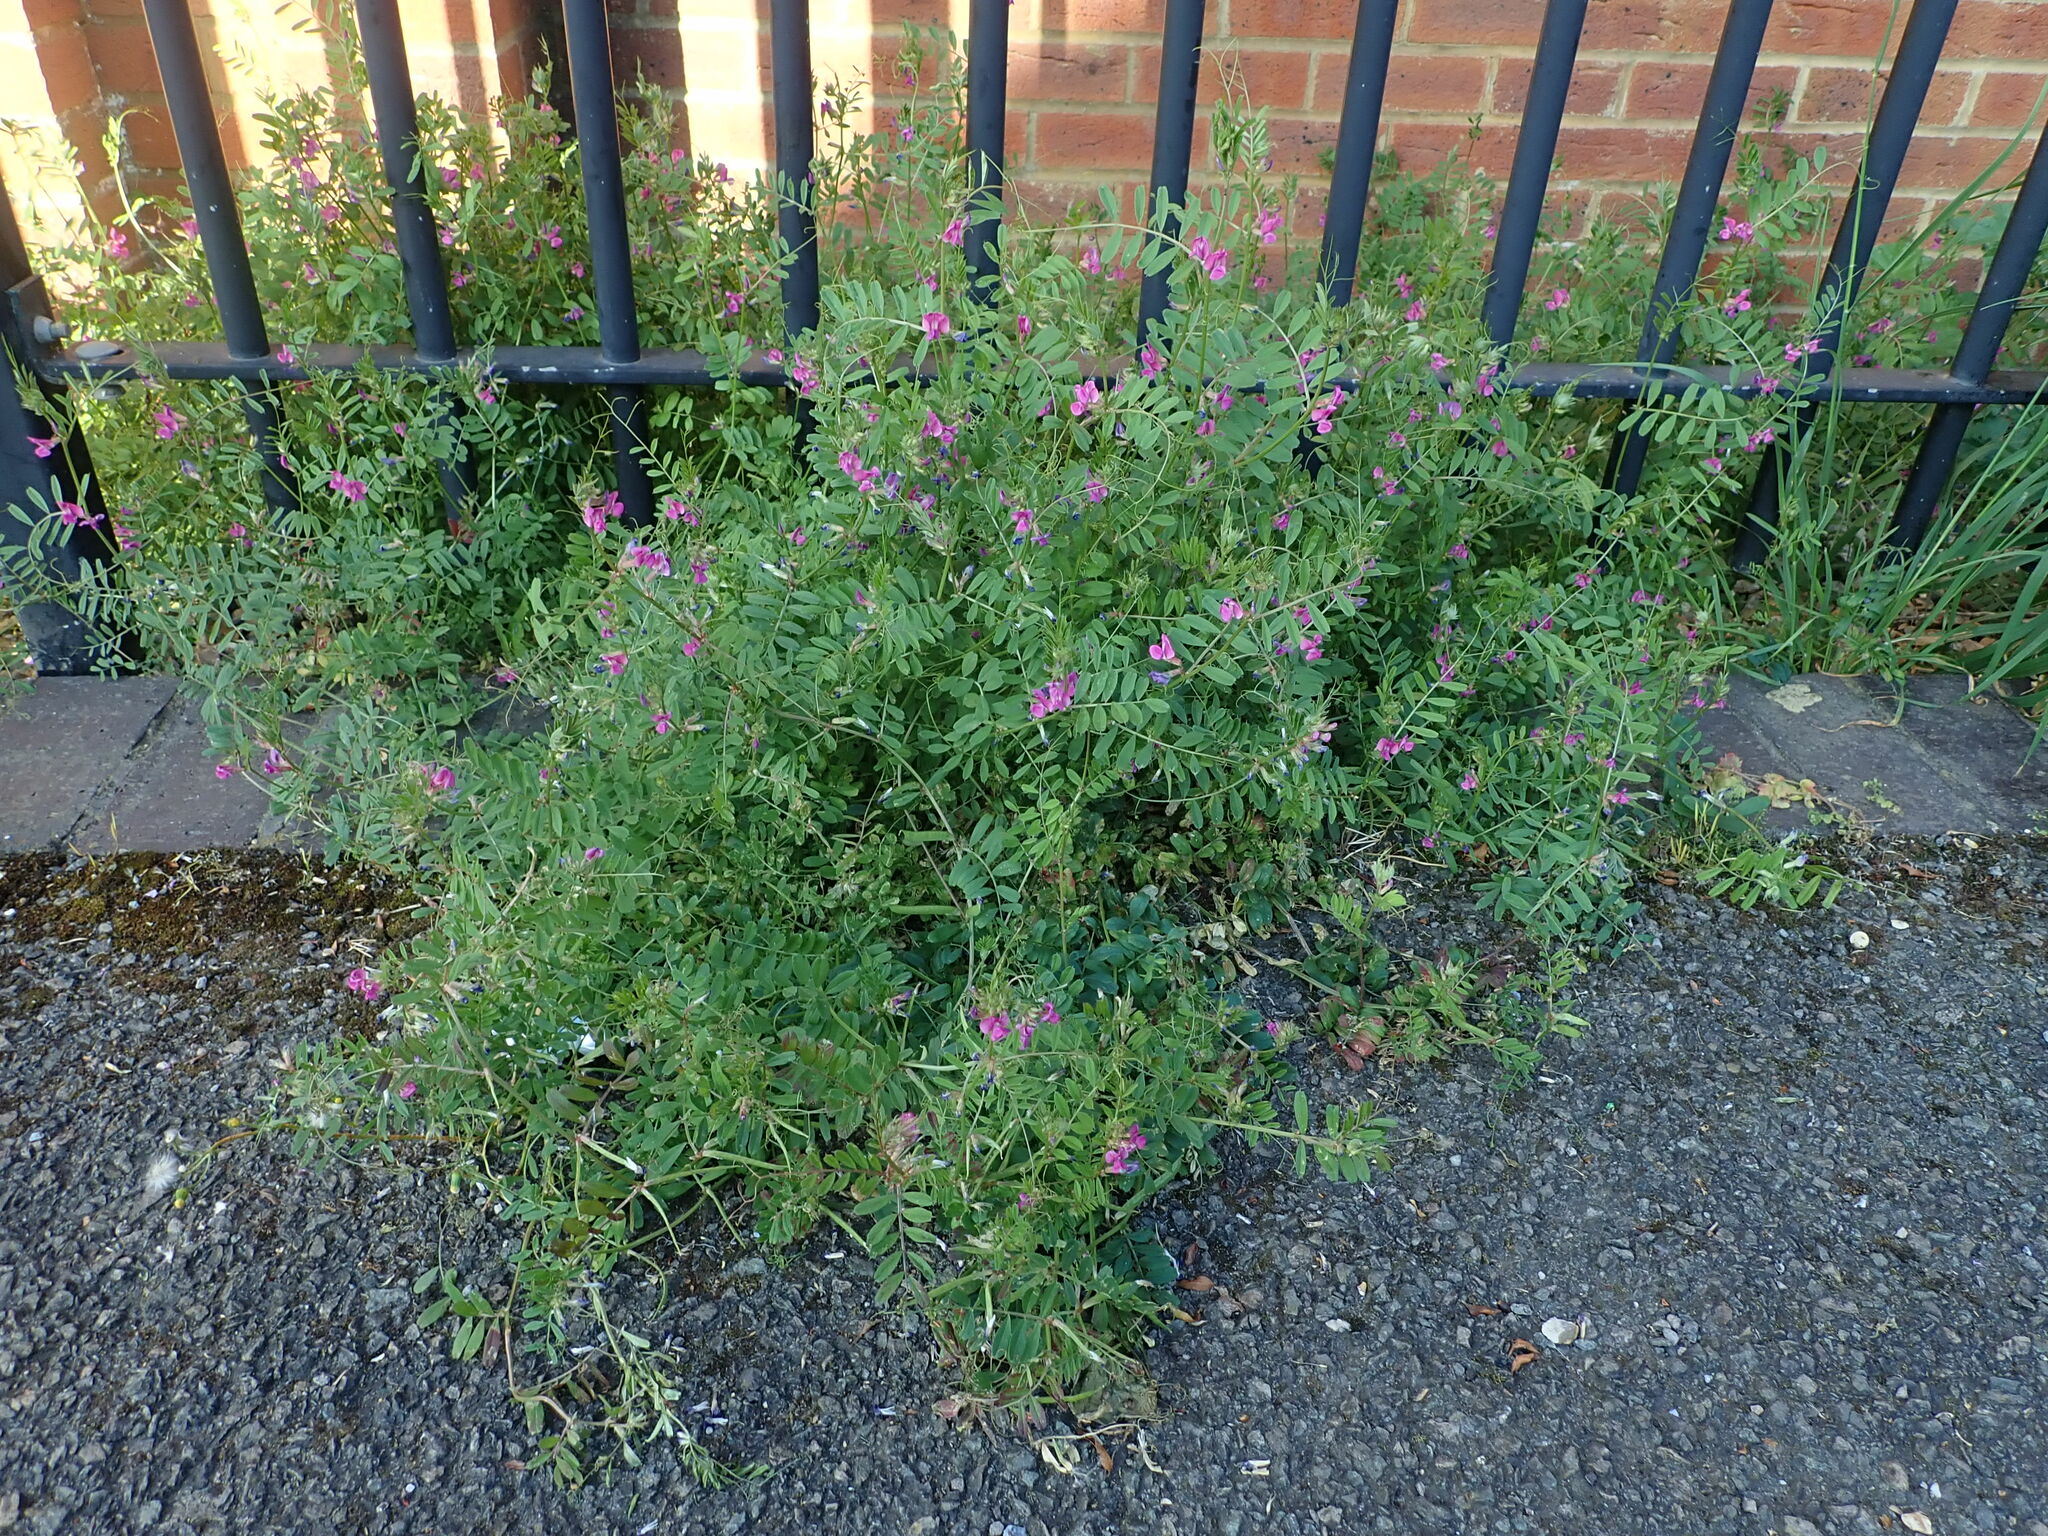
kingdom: Plantae
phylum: Tracheophyta
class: Magnoliopsida
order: Fabales
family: Fabaceae
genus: Vicia
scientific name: Vicia sativa
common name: Garden vetch
